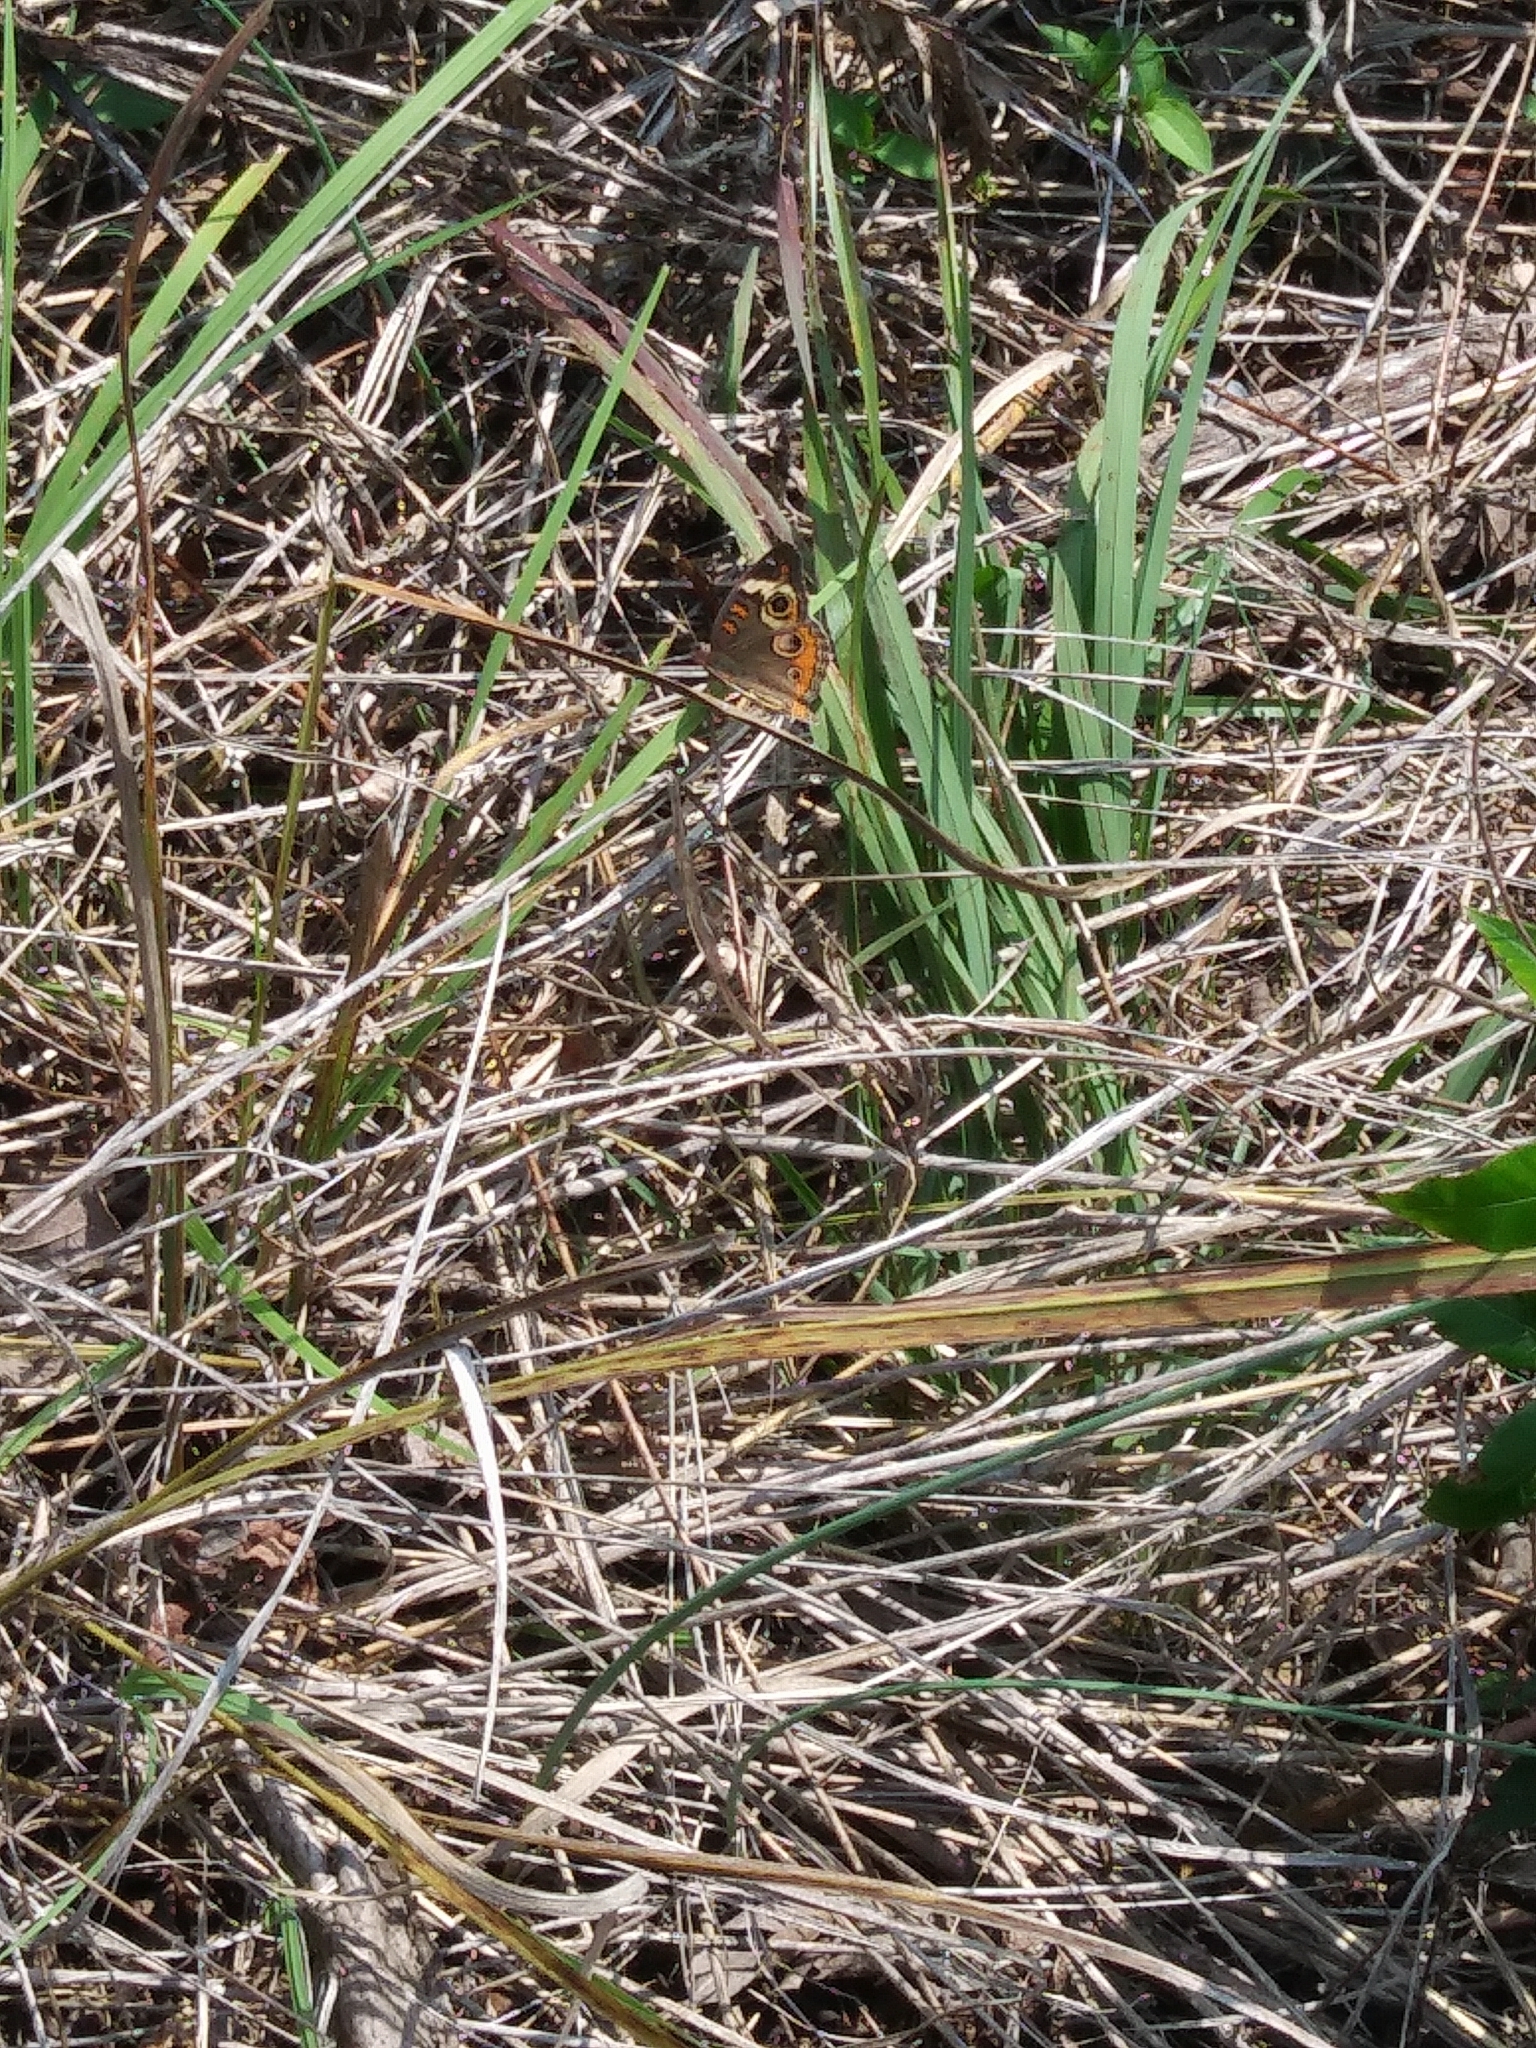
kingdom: Animalia
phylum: Arthropoda
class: Insecta
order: Lepidoptera
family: Nymphalidae
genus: Junonia
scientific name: Junonia coenia
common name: Common buckeye
